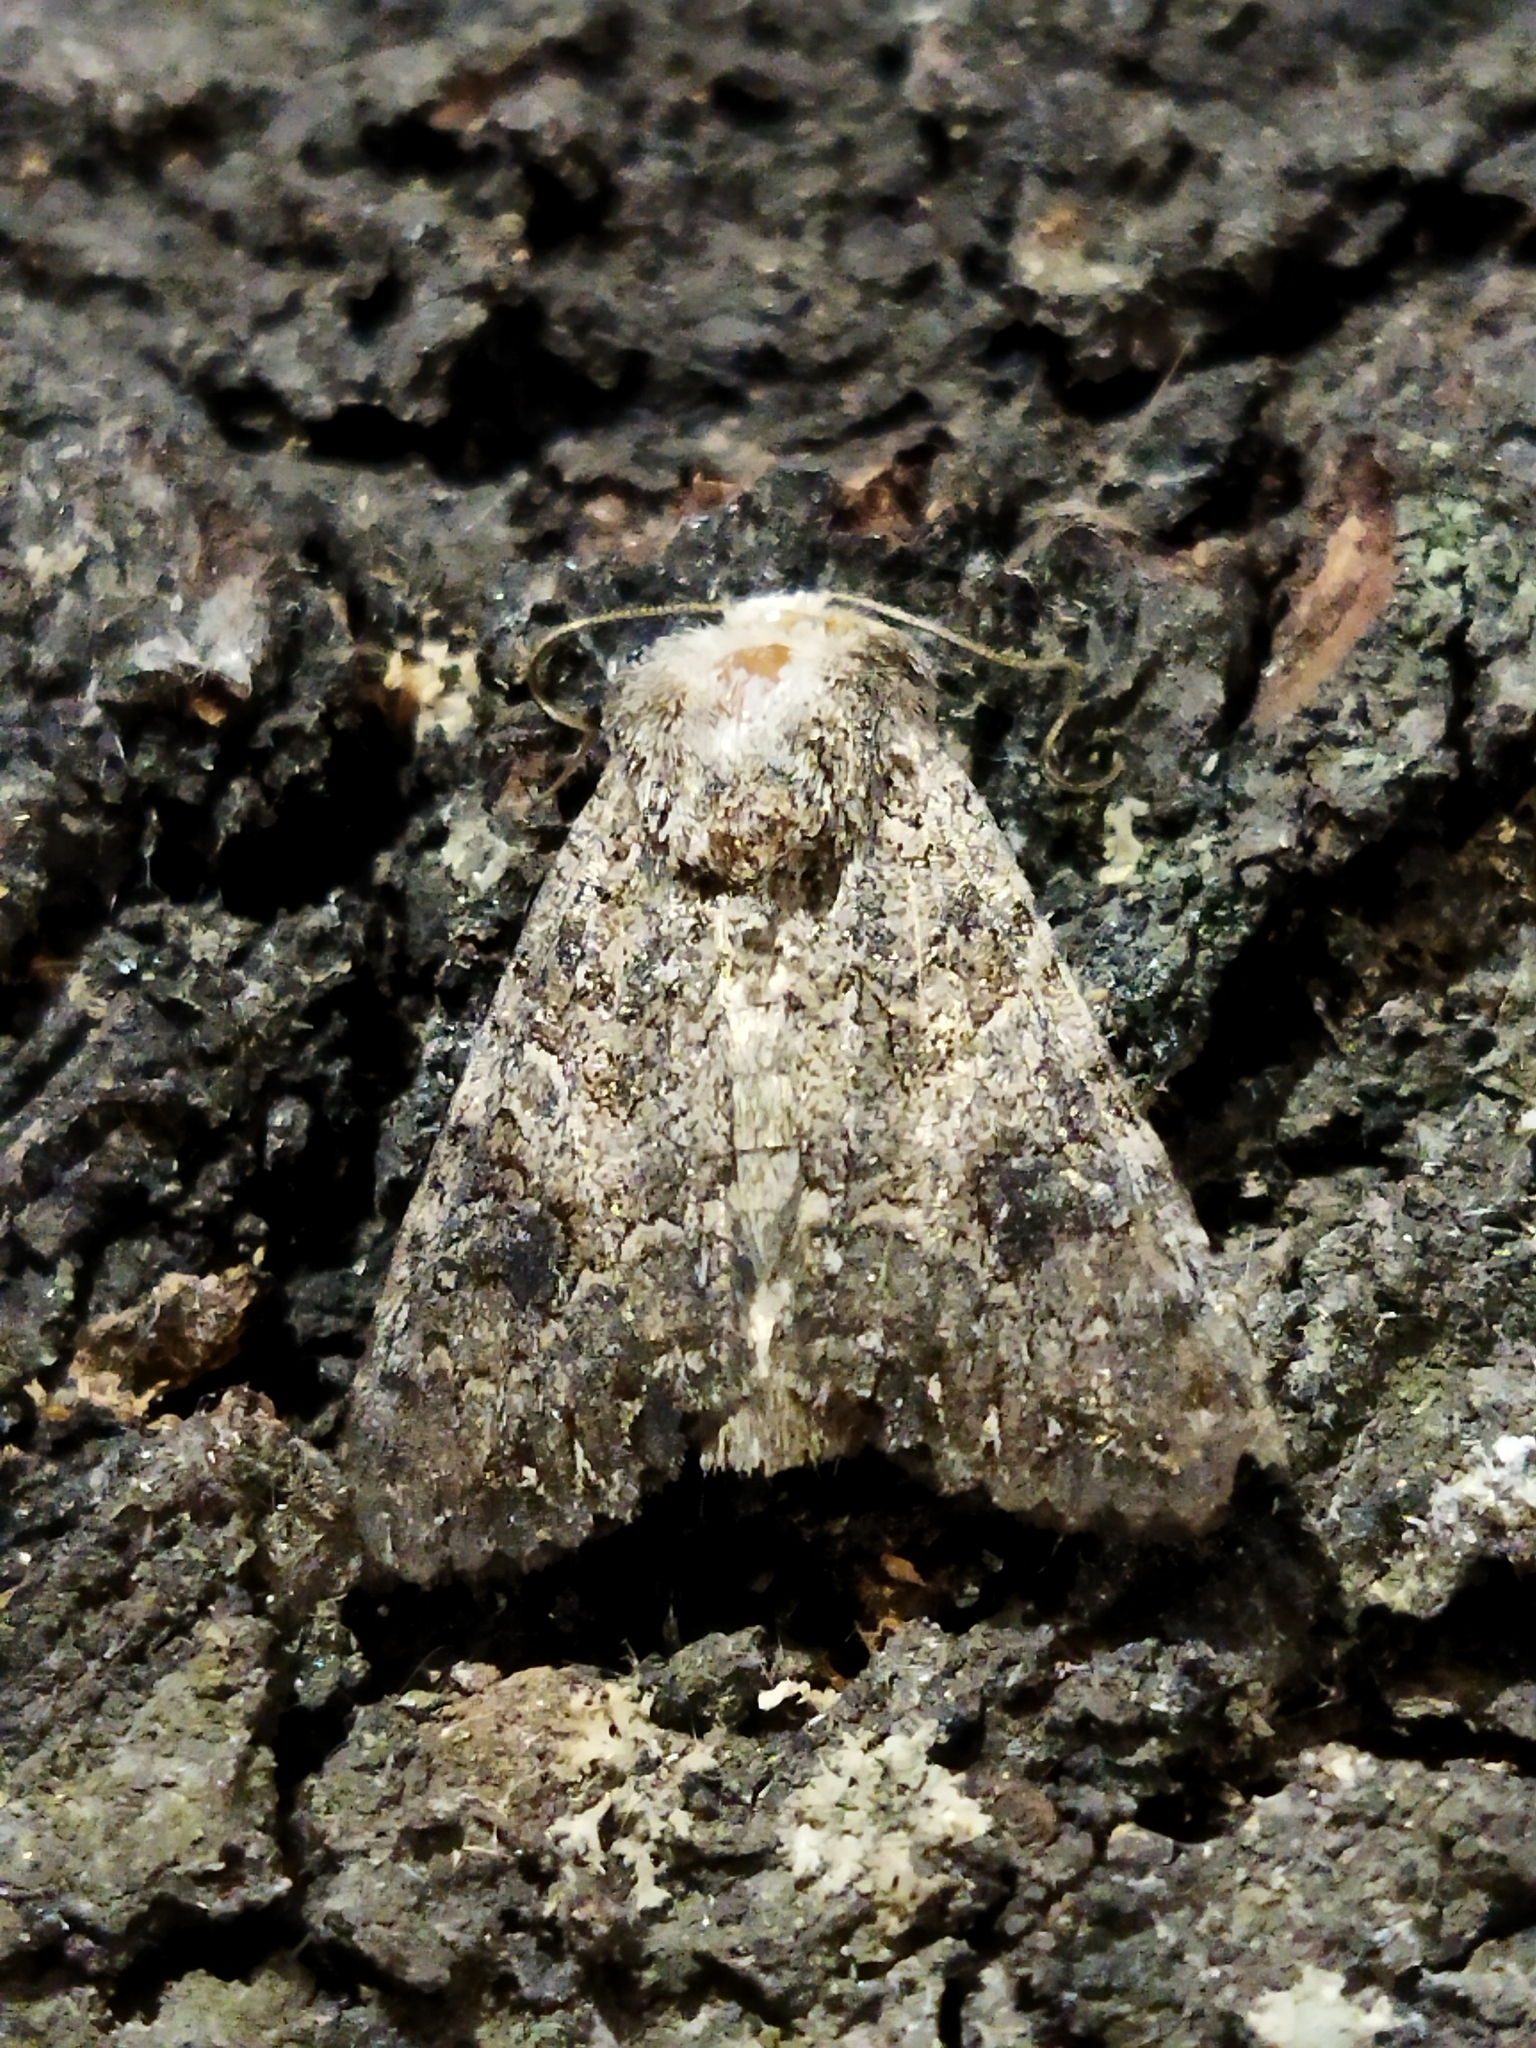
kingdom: Animalia
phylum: Arthropoda
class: Insecta
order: Lepidoptera
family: Noctuidae
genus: Anarta
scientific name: Anarta trifolii
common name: Clover cutworm moth
